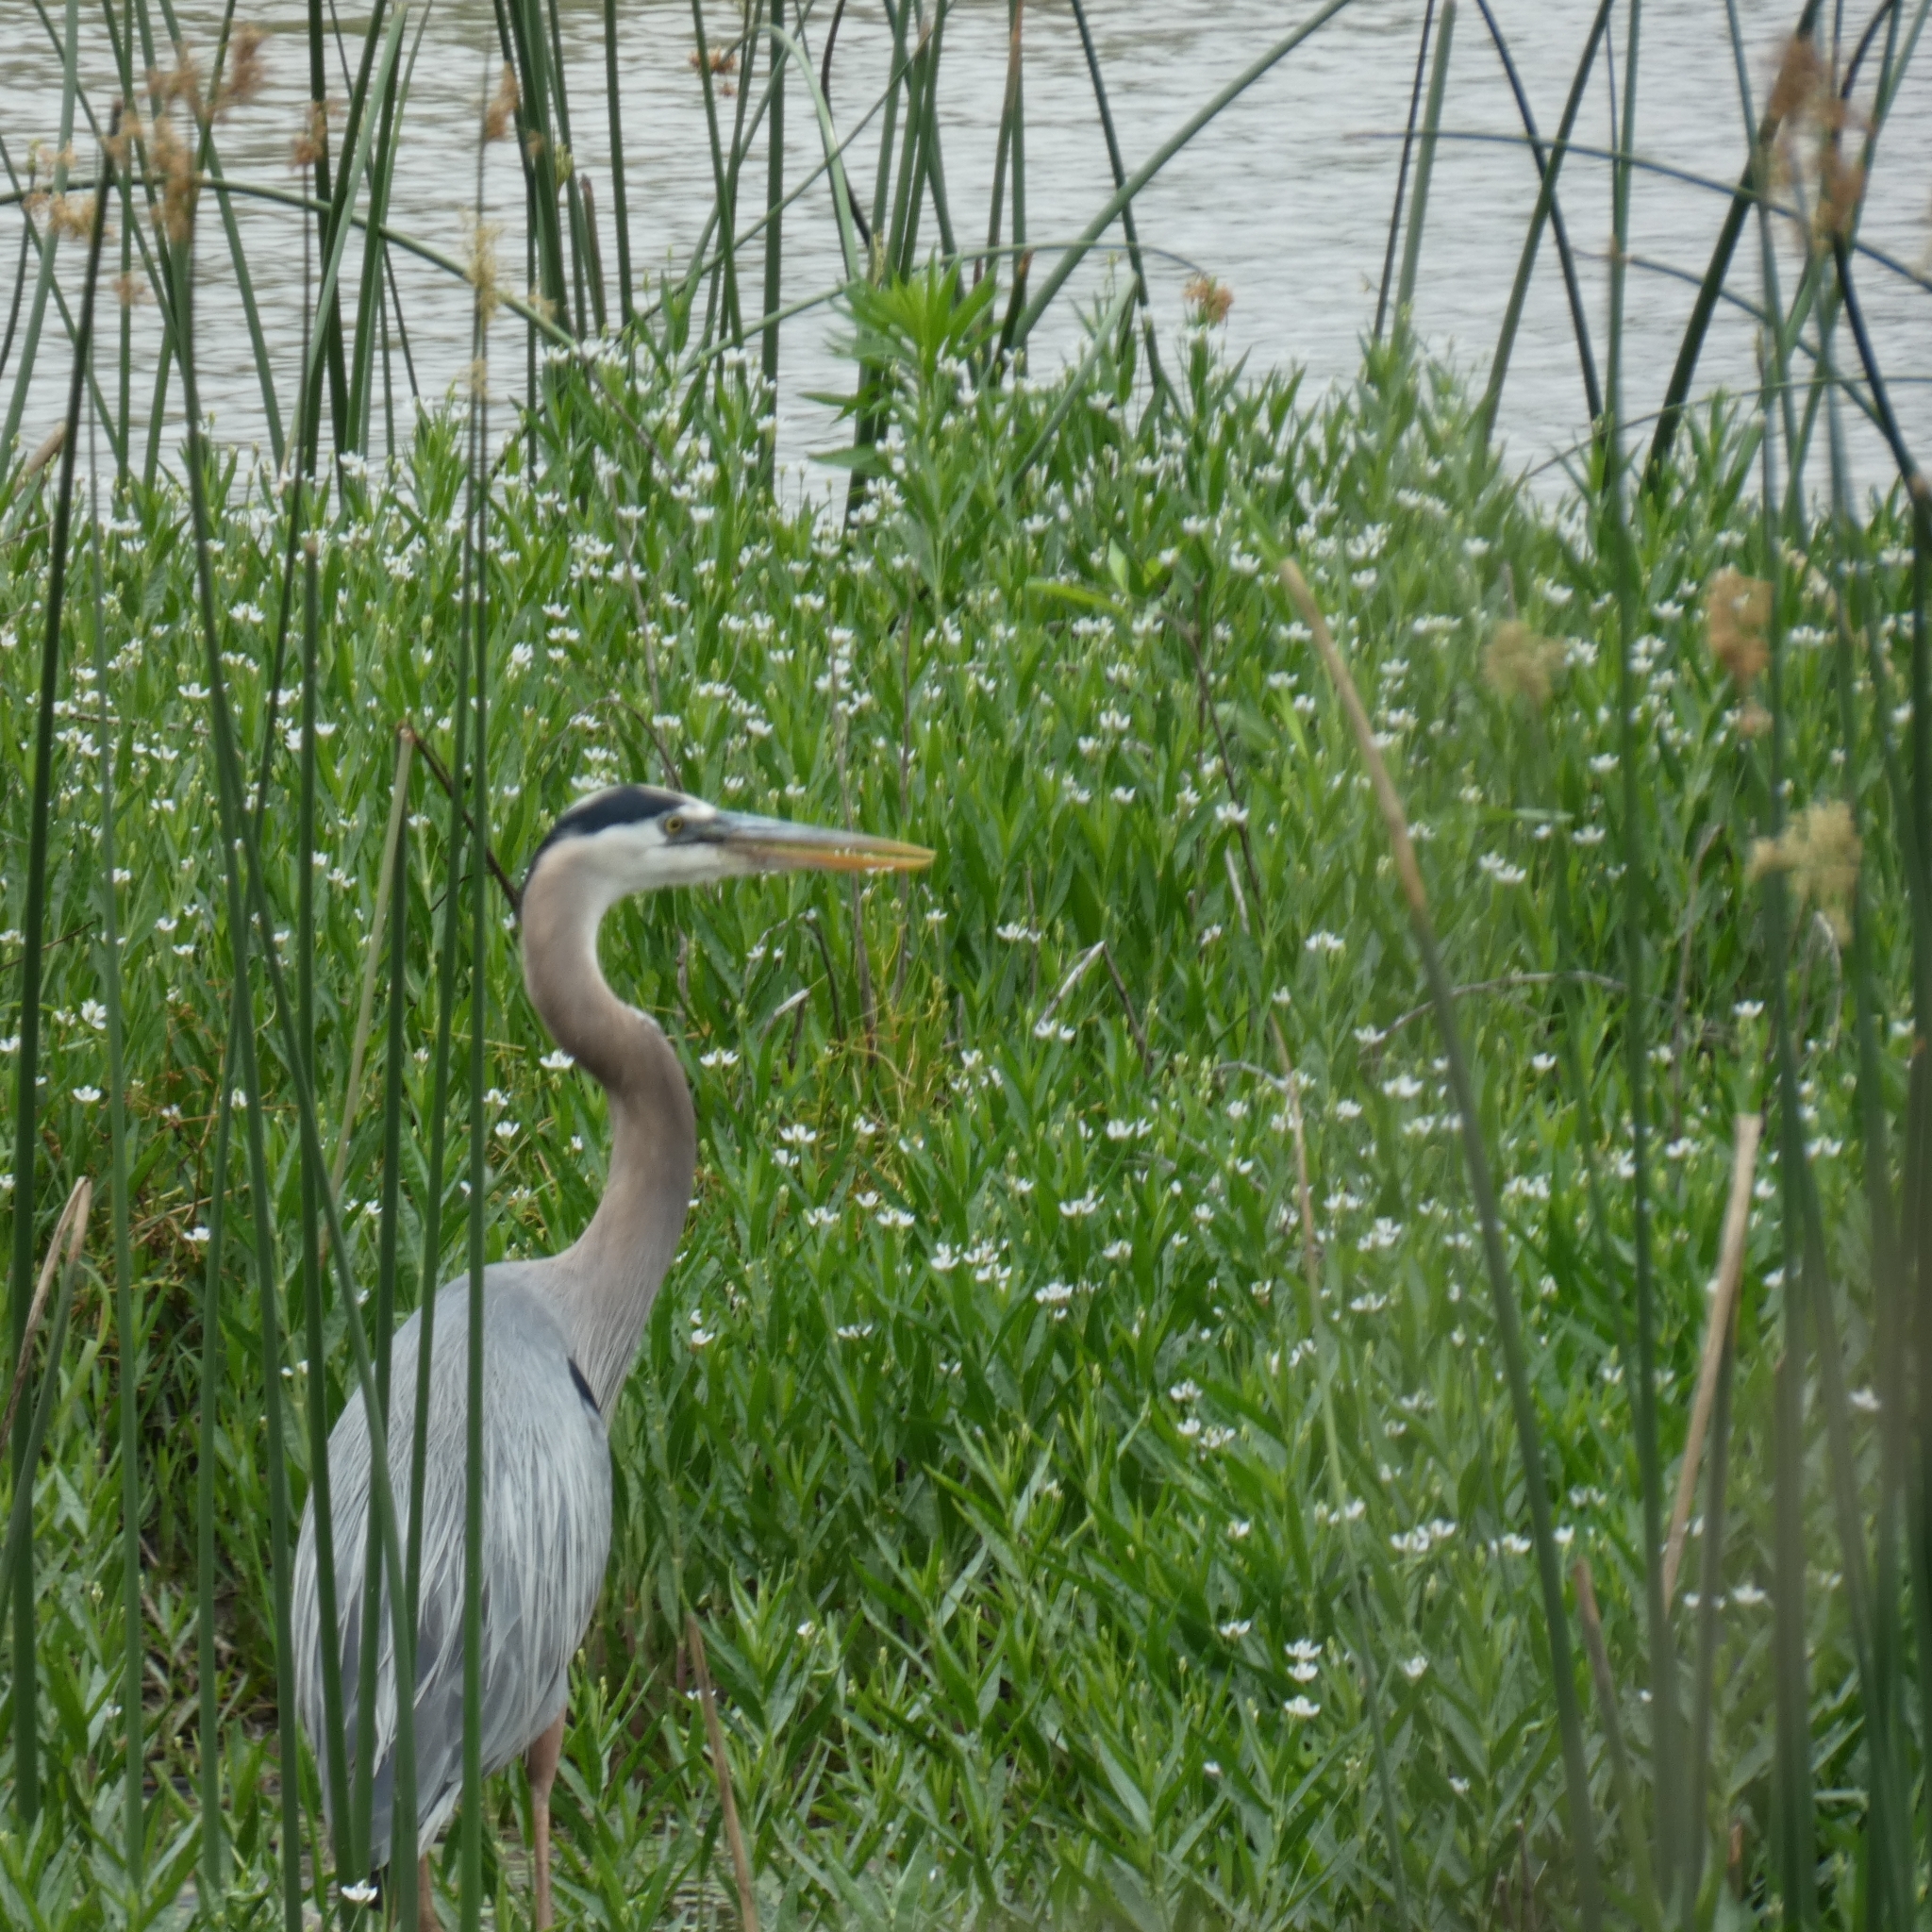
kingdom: Animalia
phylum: Chordata
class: Aves
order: Pelecaniformes
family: Ardeidae
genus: Ardea
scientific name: Ardea herodias
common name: Great blue heron
